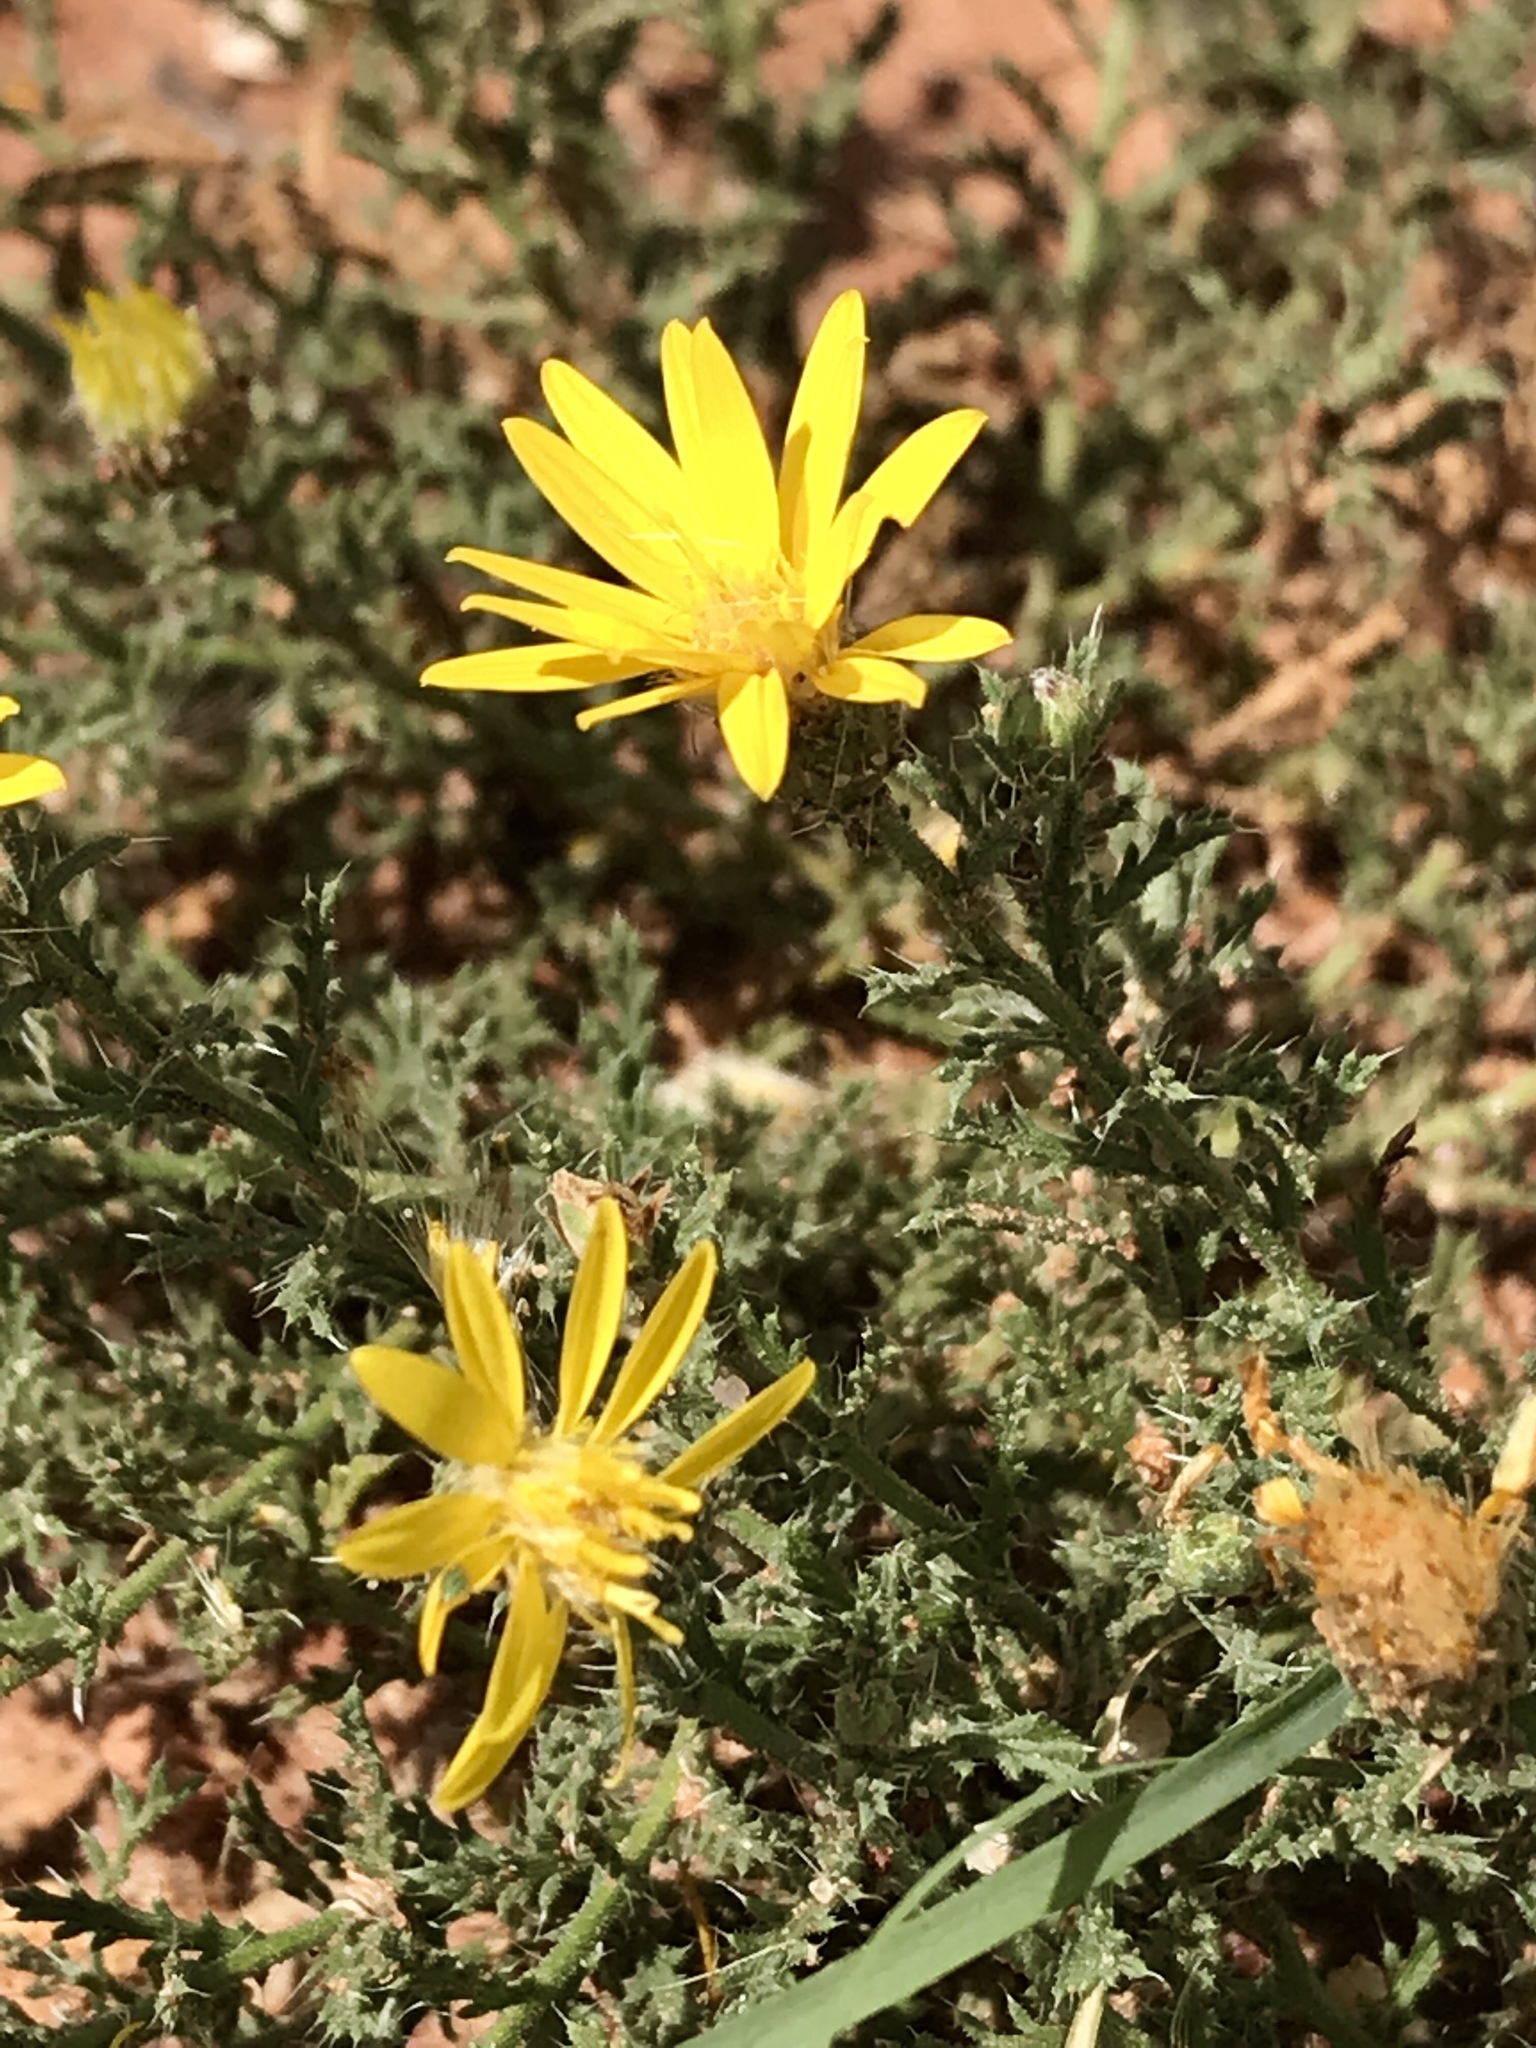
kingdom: Plantae
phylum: Tracheophyta
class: Magnoliopsida
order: Asterales
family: Asteraceae
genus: Xanthisma
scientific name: Xanthisma spinulosum
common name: Spiny goldenweed
